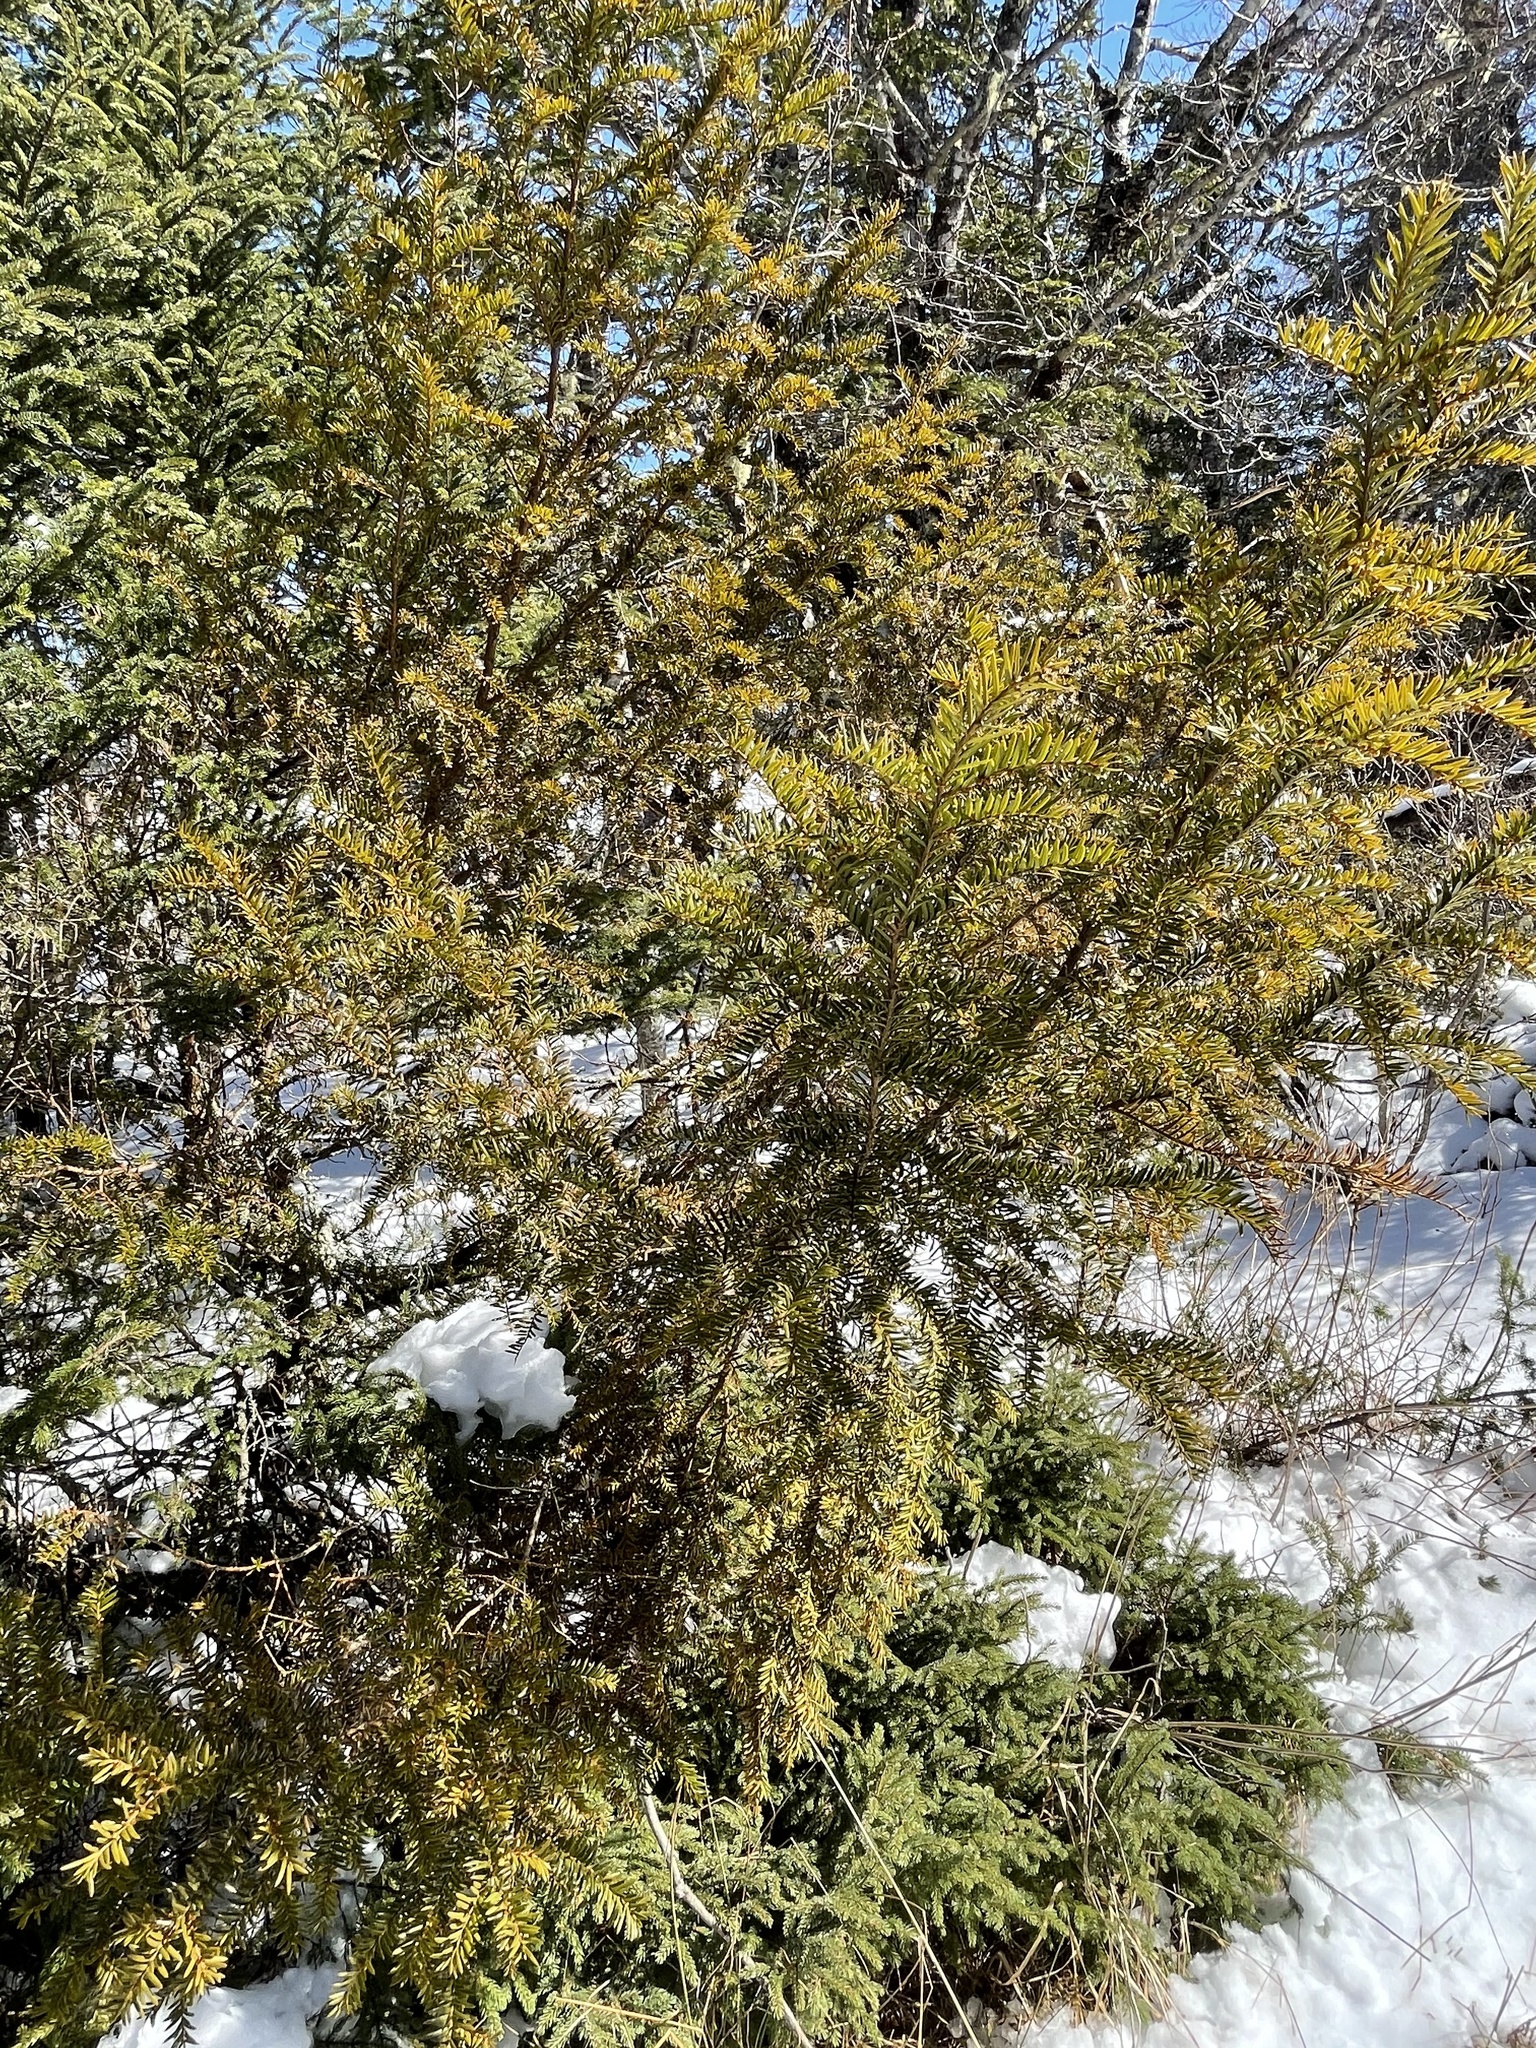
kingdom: Plantae
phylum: Tracheophyta
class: Pinopsida
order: Pinales
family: Taxaceae
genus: Taxus
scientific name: Taxus canadensis
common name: American yew
